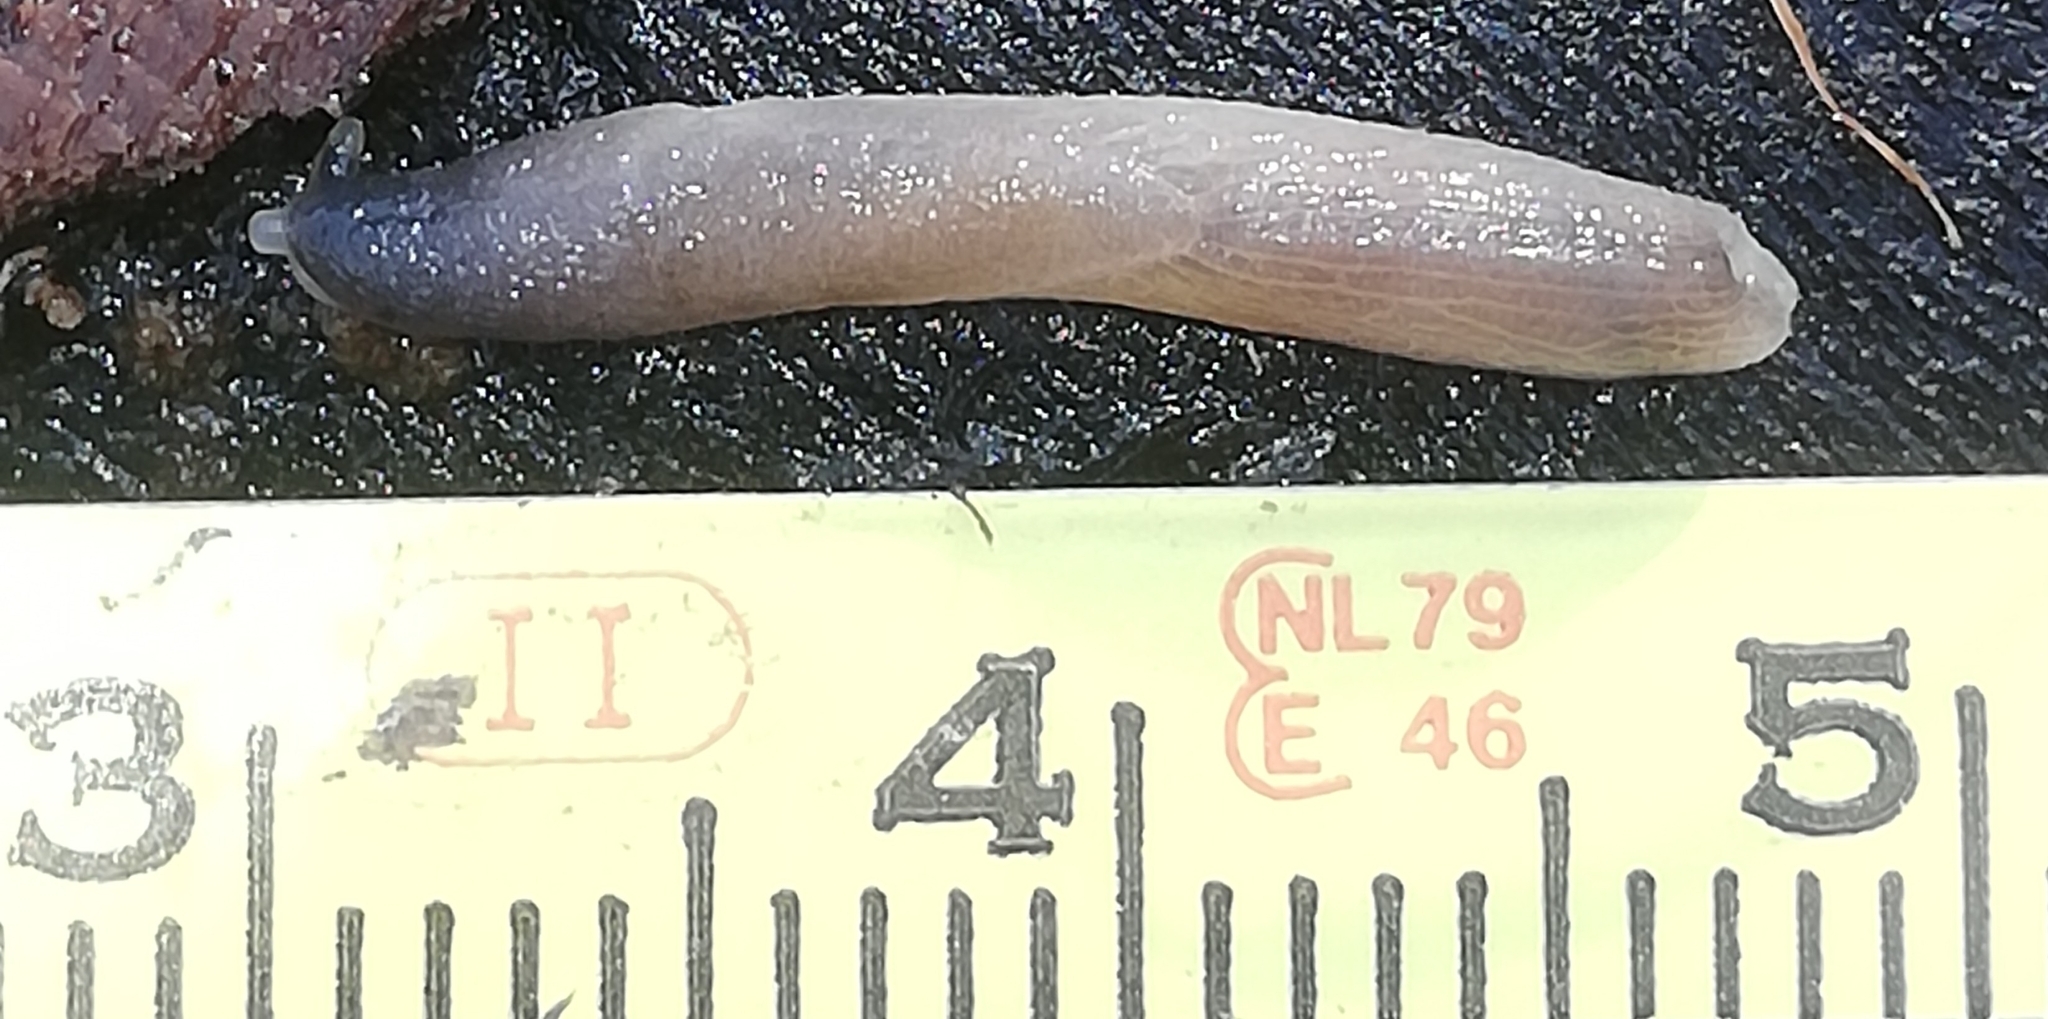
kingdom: Animalia
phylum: Mollusca
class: Gastropoda
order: Stylommatophora
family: Boettgerillidae
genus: Boettgerilla
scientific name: Boettgerilla pallens
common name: Worm slug
